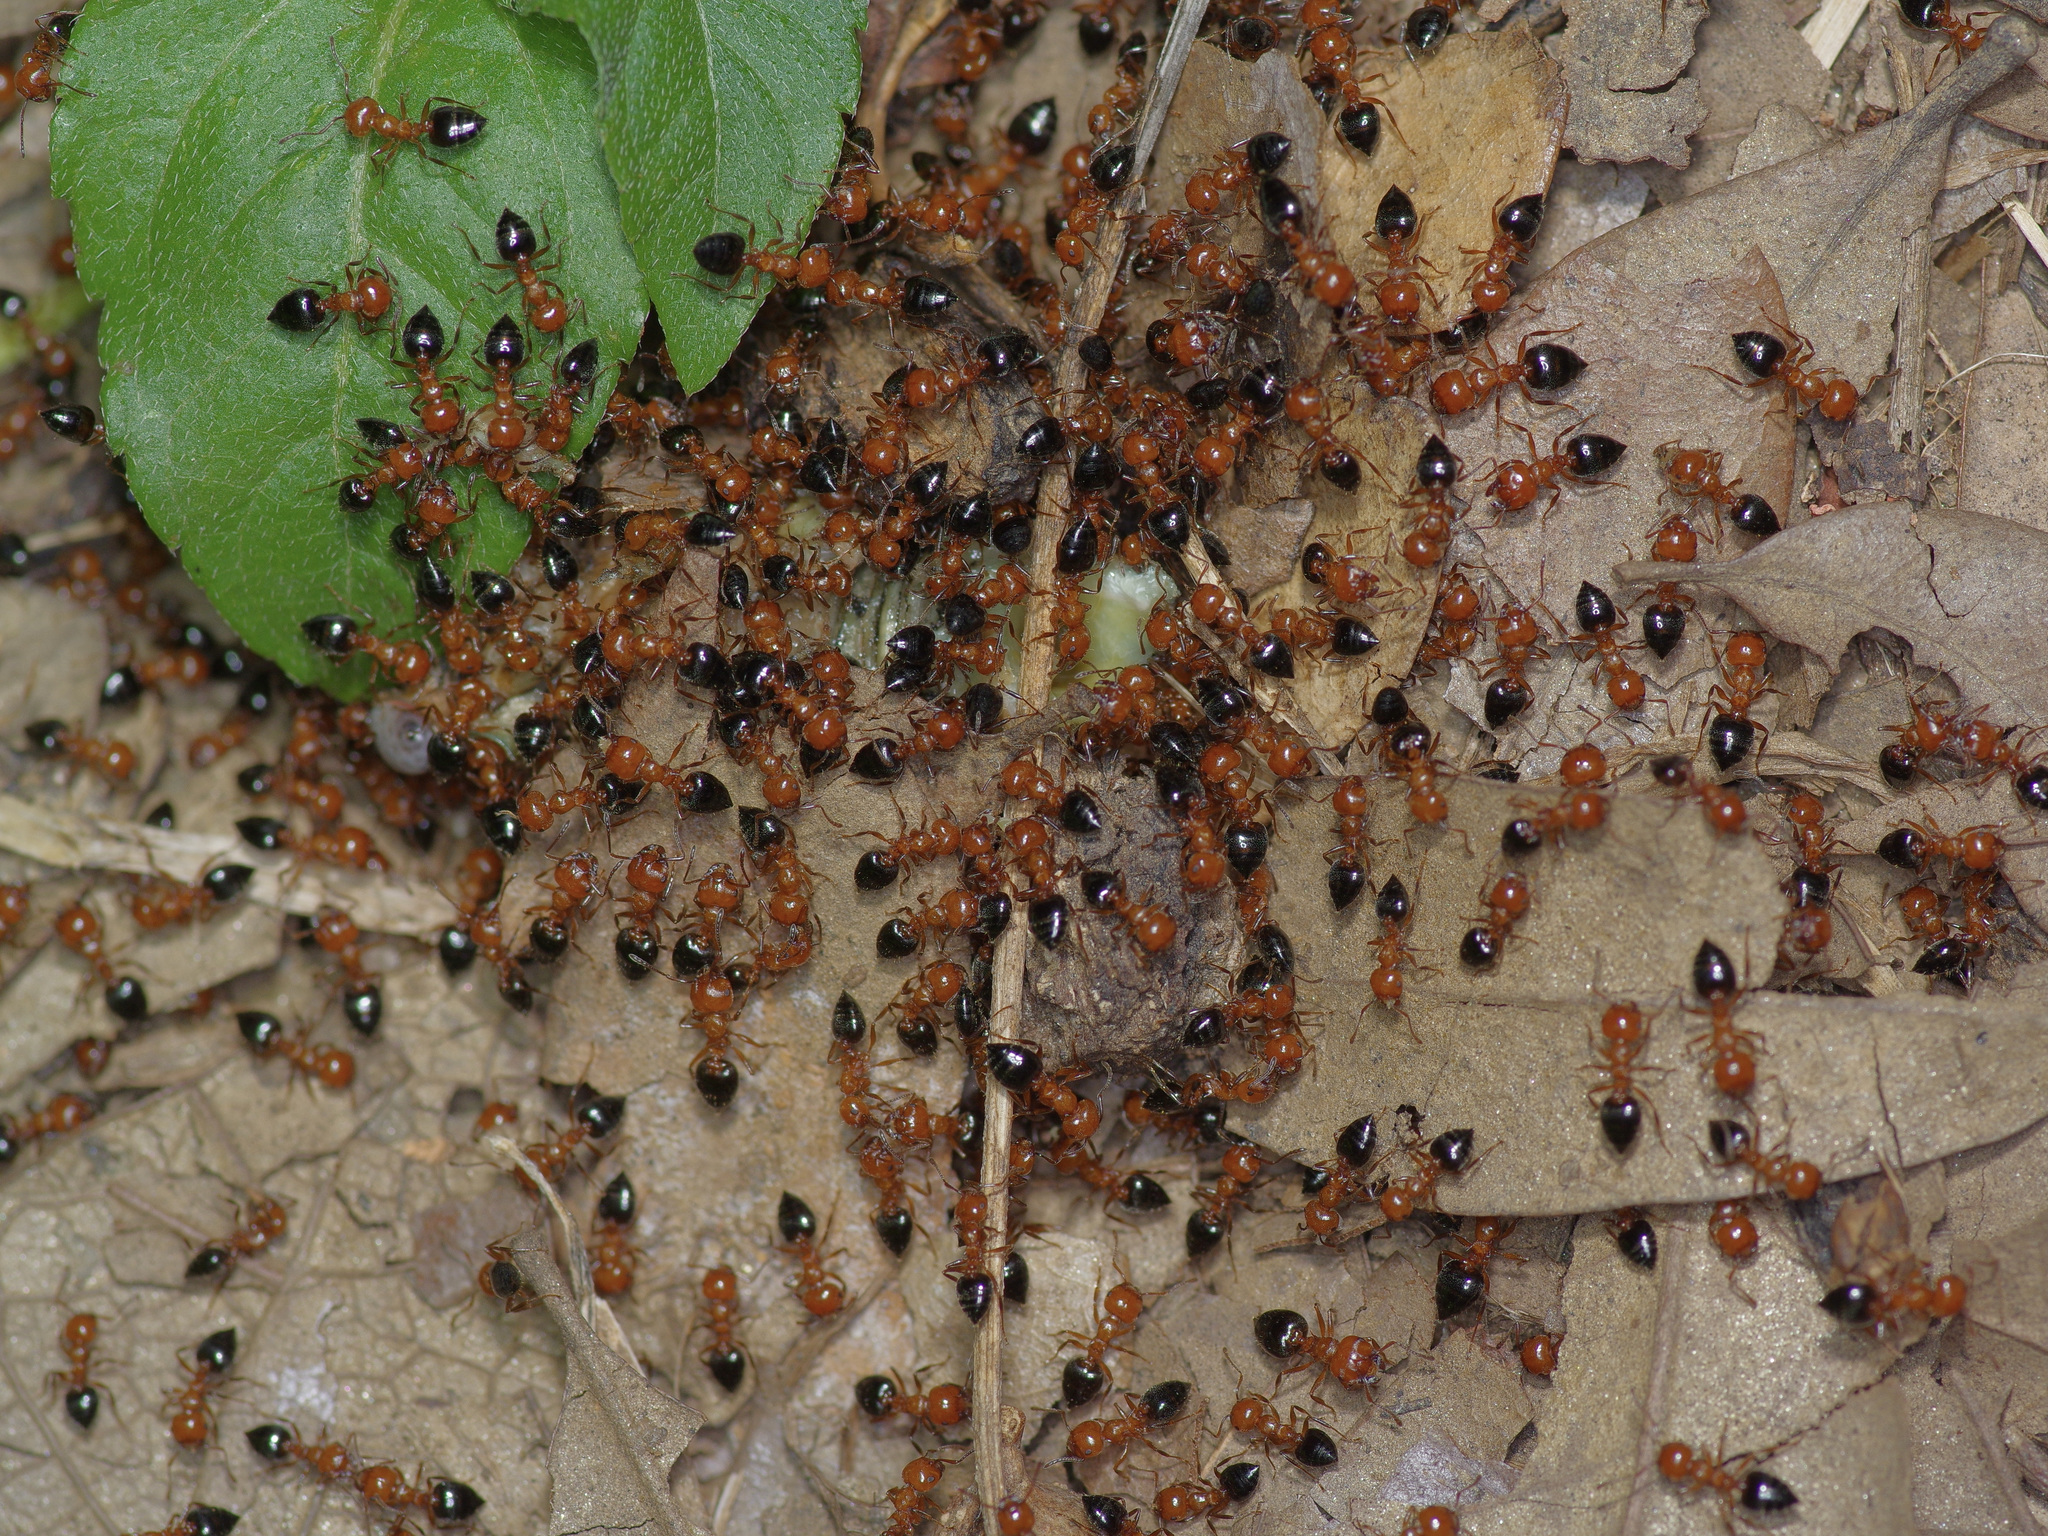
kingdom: Animalia
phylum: Arthropoda
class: Insecta
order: Hymenoptera
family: Formicidae
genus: Crematogaster
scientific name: Crematogaster laeviuscula
